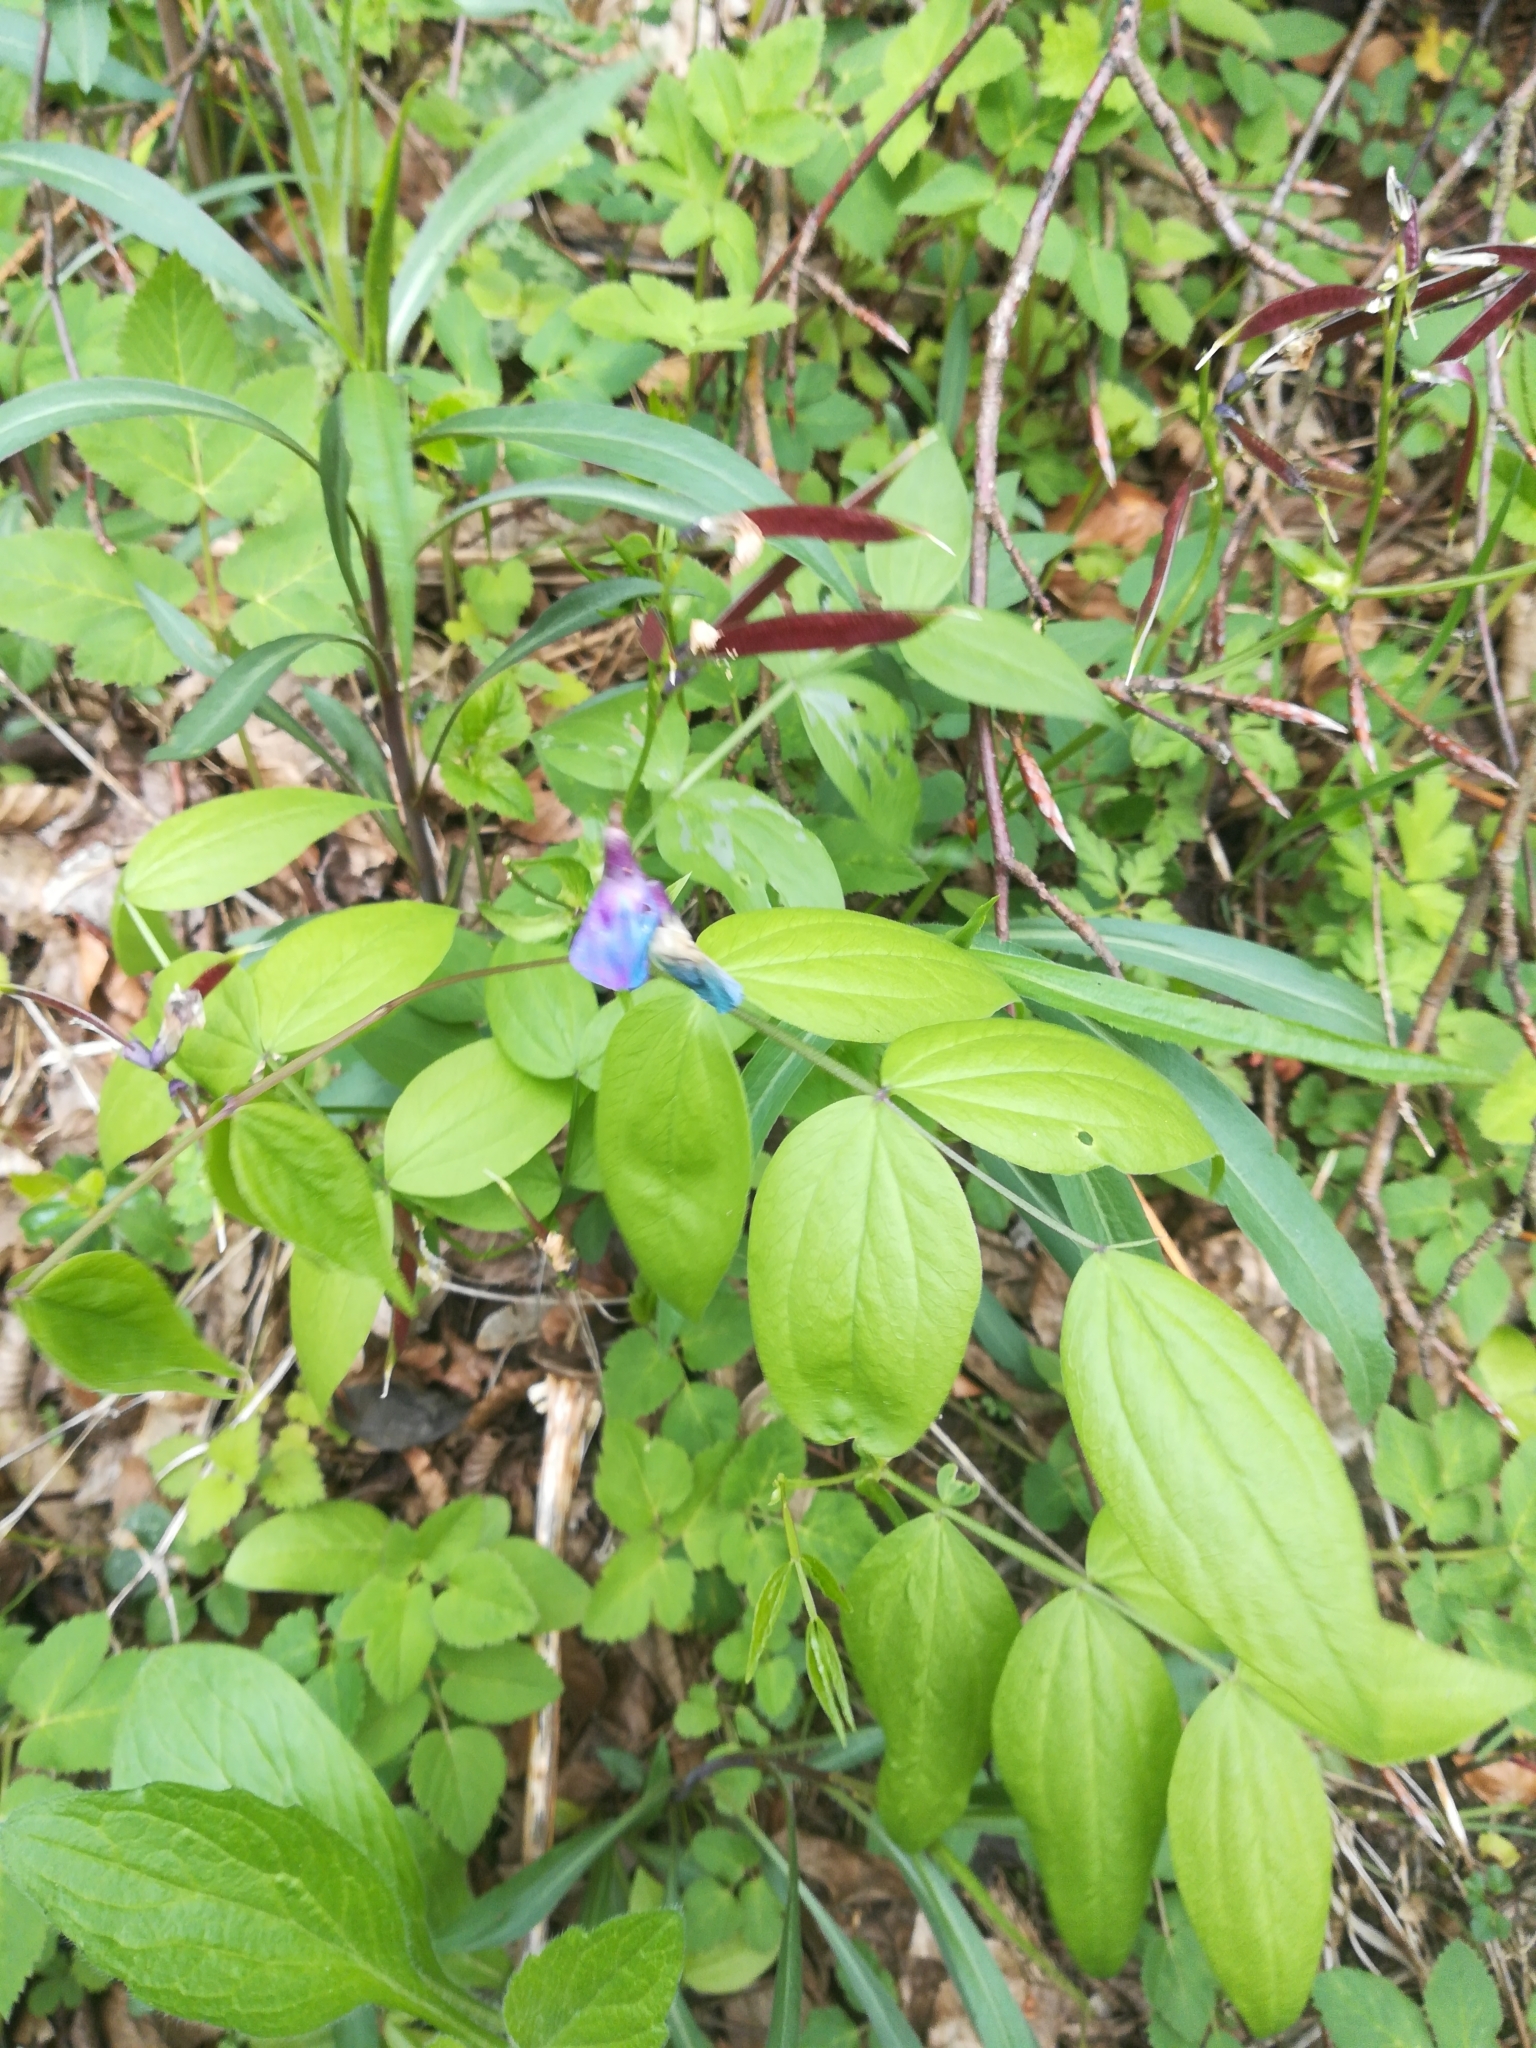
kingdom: Plantae
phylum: Tracheophyta
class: Magnoliopsida
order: Fabales
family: Fabaceae
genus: Lathyrus
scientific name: Lathyrus vernus
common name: Spring pea
